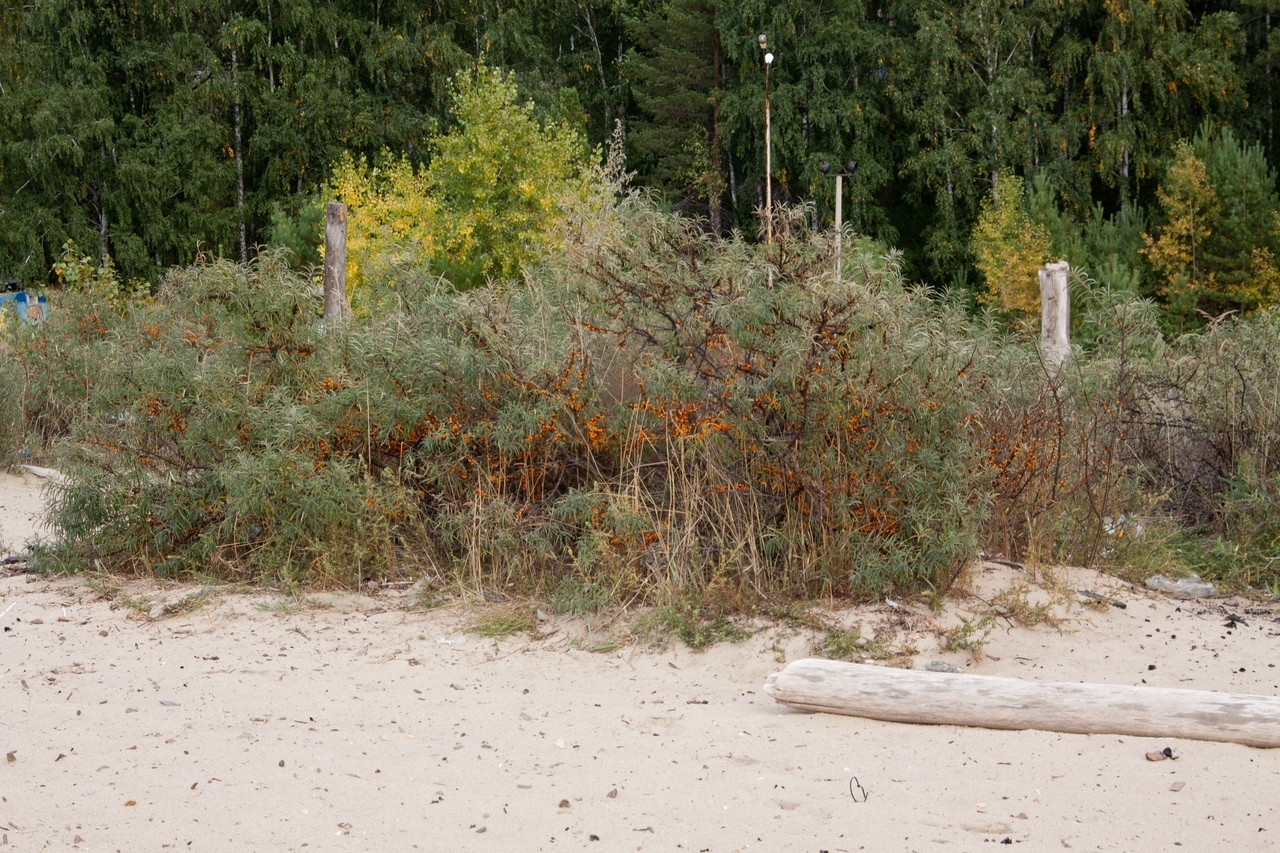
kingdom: Plantae
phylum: Tracheophyta
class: Magnoliopsida
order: Rosales
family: Elaeagnaceae
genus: Hippophae
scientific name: Hippophae rhamnoides
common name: Sea-buckthorn
